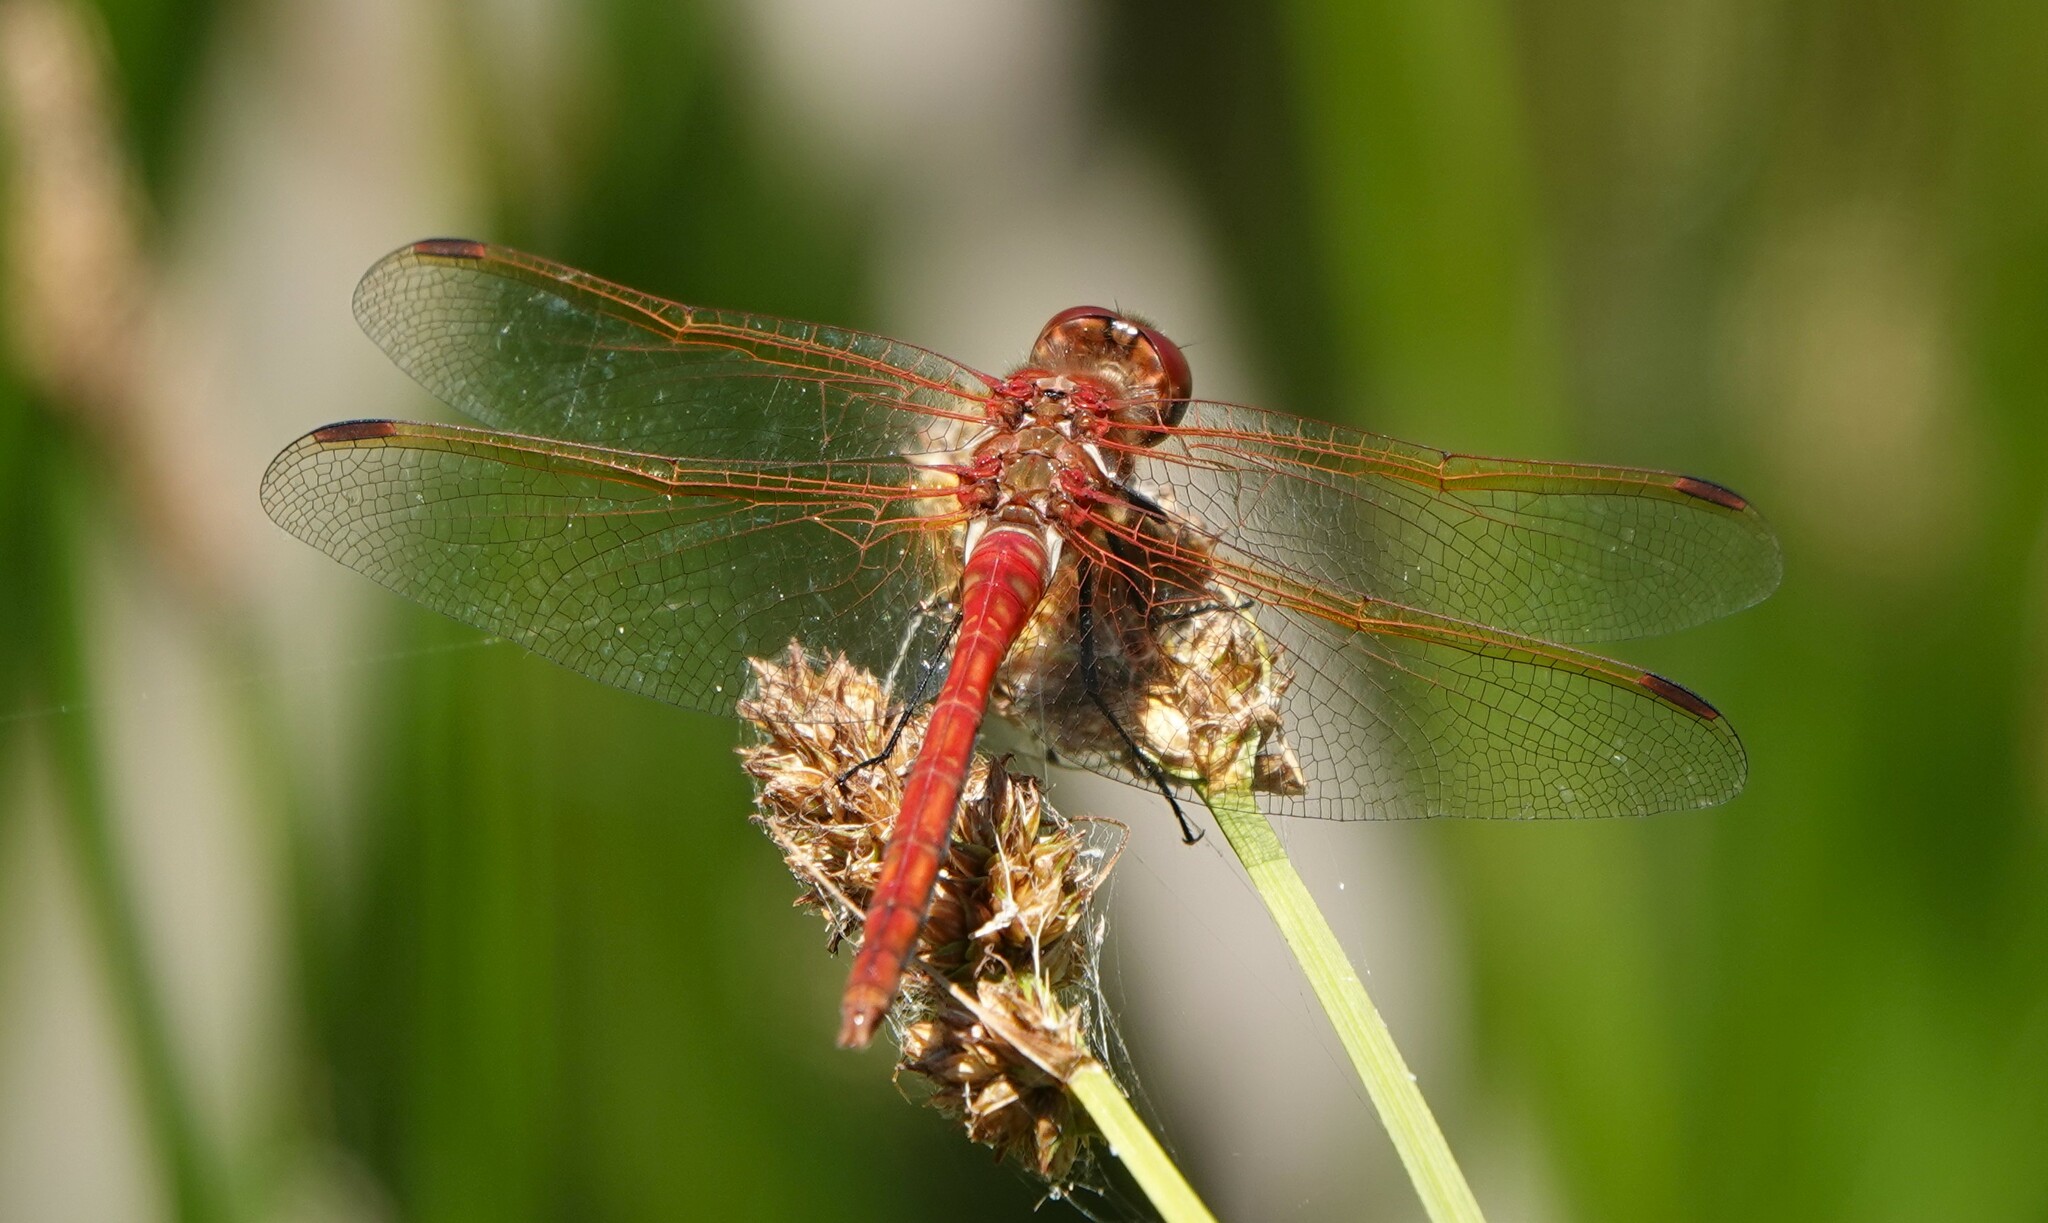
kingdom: Animalia
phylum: Arthropoda
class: Insecta
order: Odonata
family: Libellulidae
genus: Sympetrum
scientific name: Sympetrum madidum
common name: Red-veined meadowhawk
